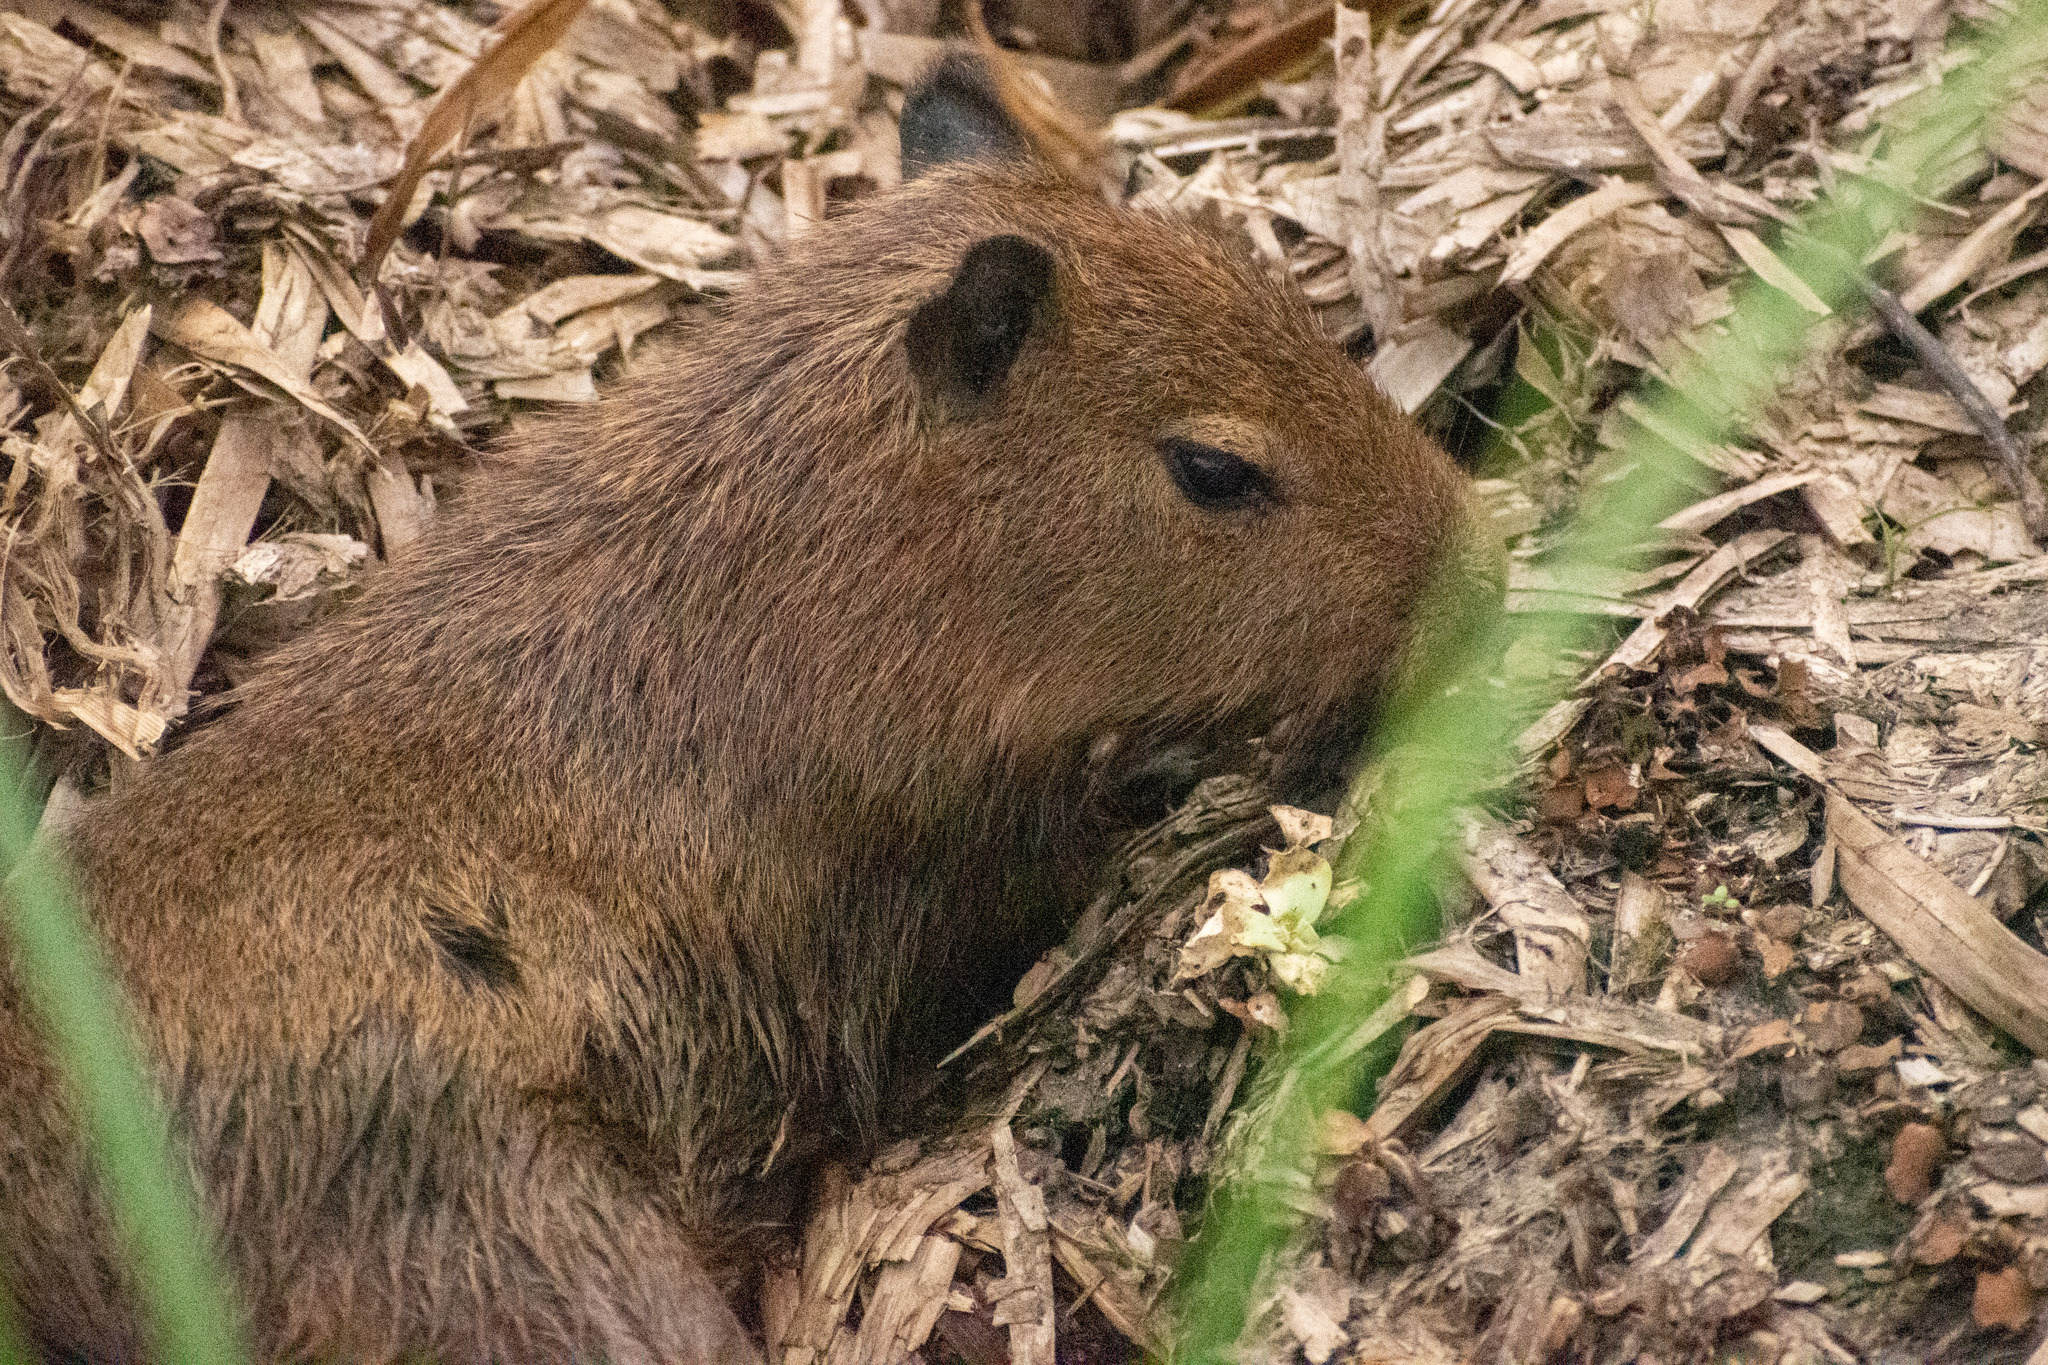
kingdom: Animalia
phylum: Chordata
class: Mammalia
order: Rodentia
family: Caviidae
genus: Hydrochoerus
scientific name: Hydrochoerus hydrochaeris
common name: Capybara
